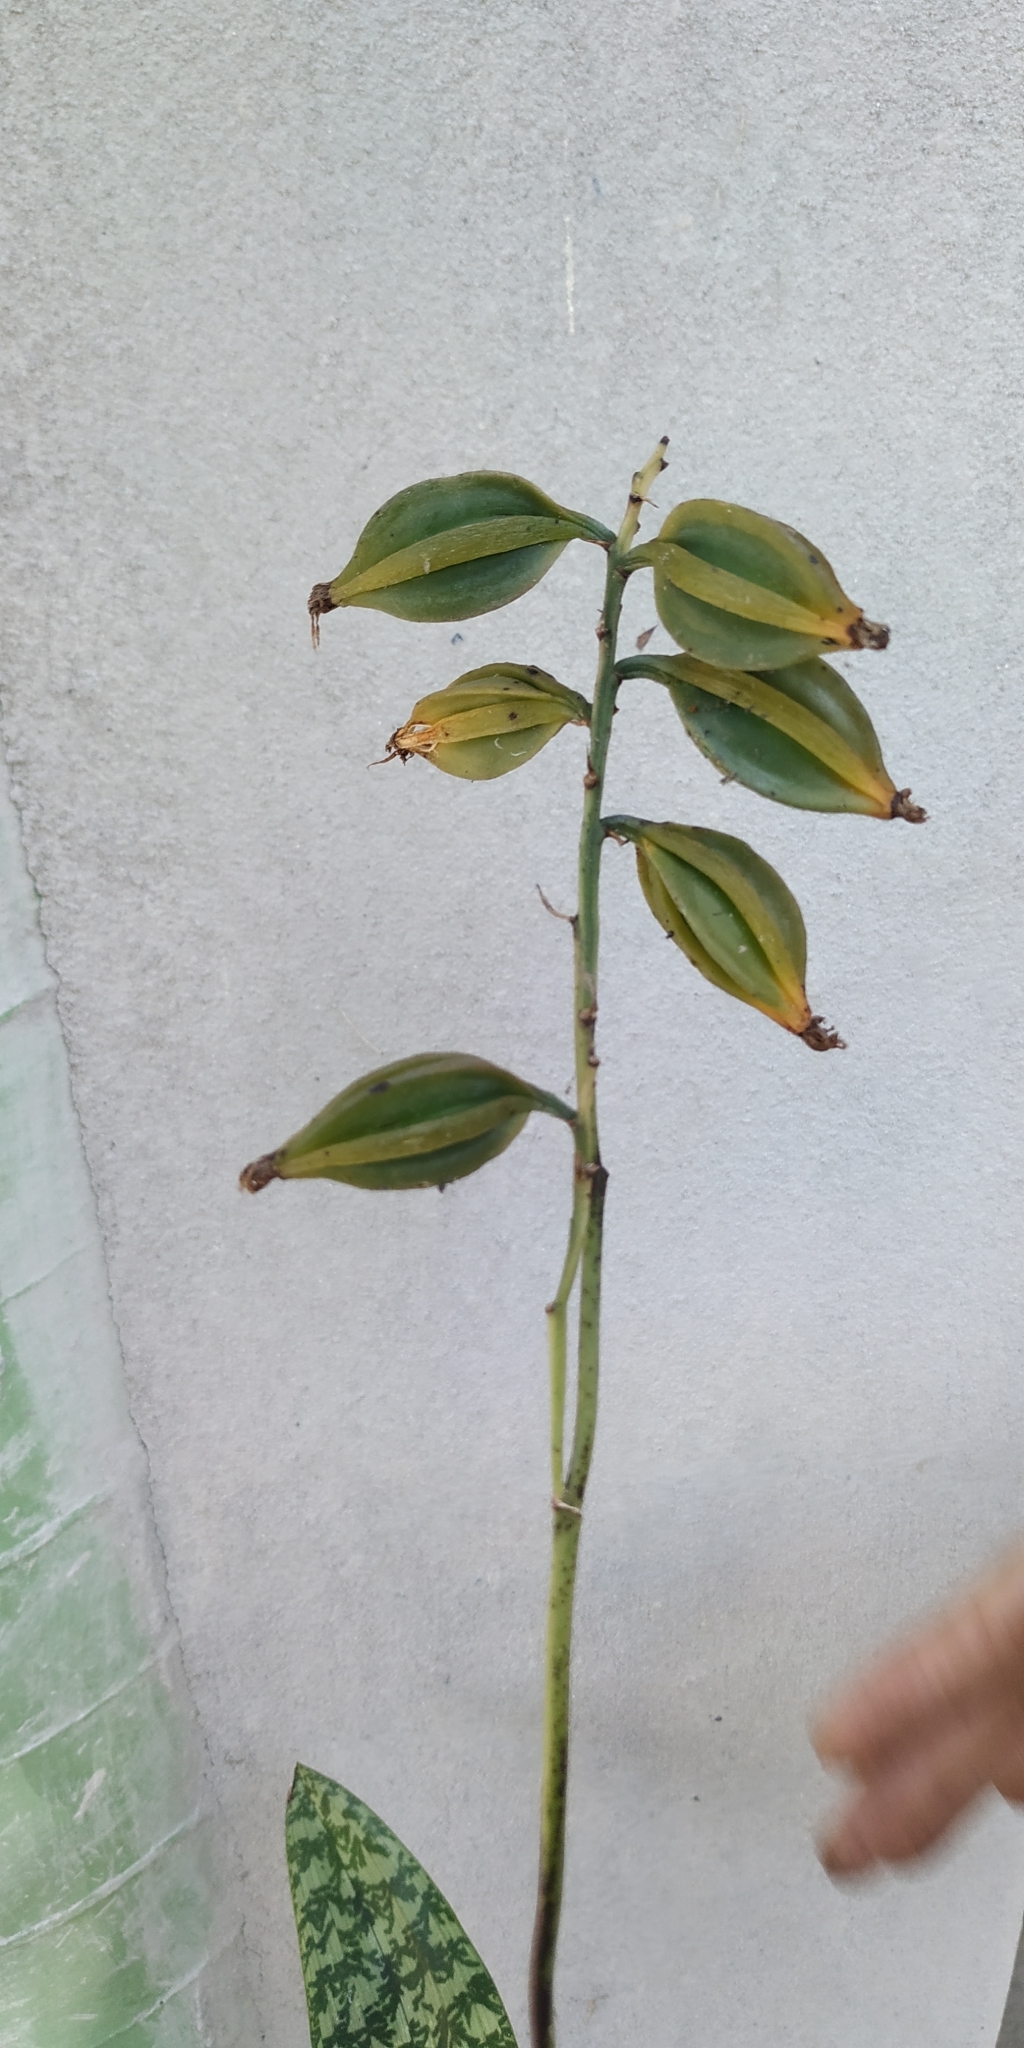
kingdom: Plantae
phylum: Tracheophyta
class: Liliopsida
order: Asparagales
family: Orchidaceae
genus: Eulophia
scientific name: Eulophia maculata
